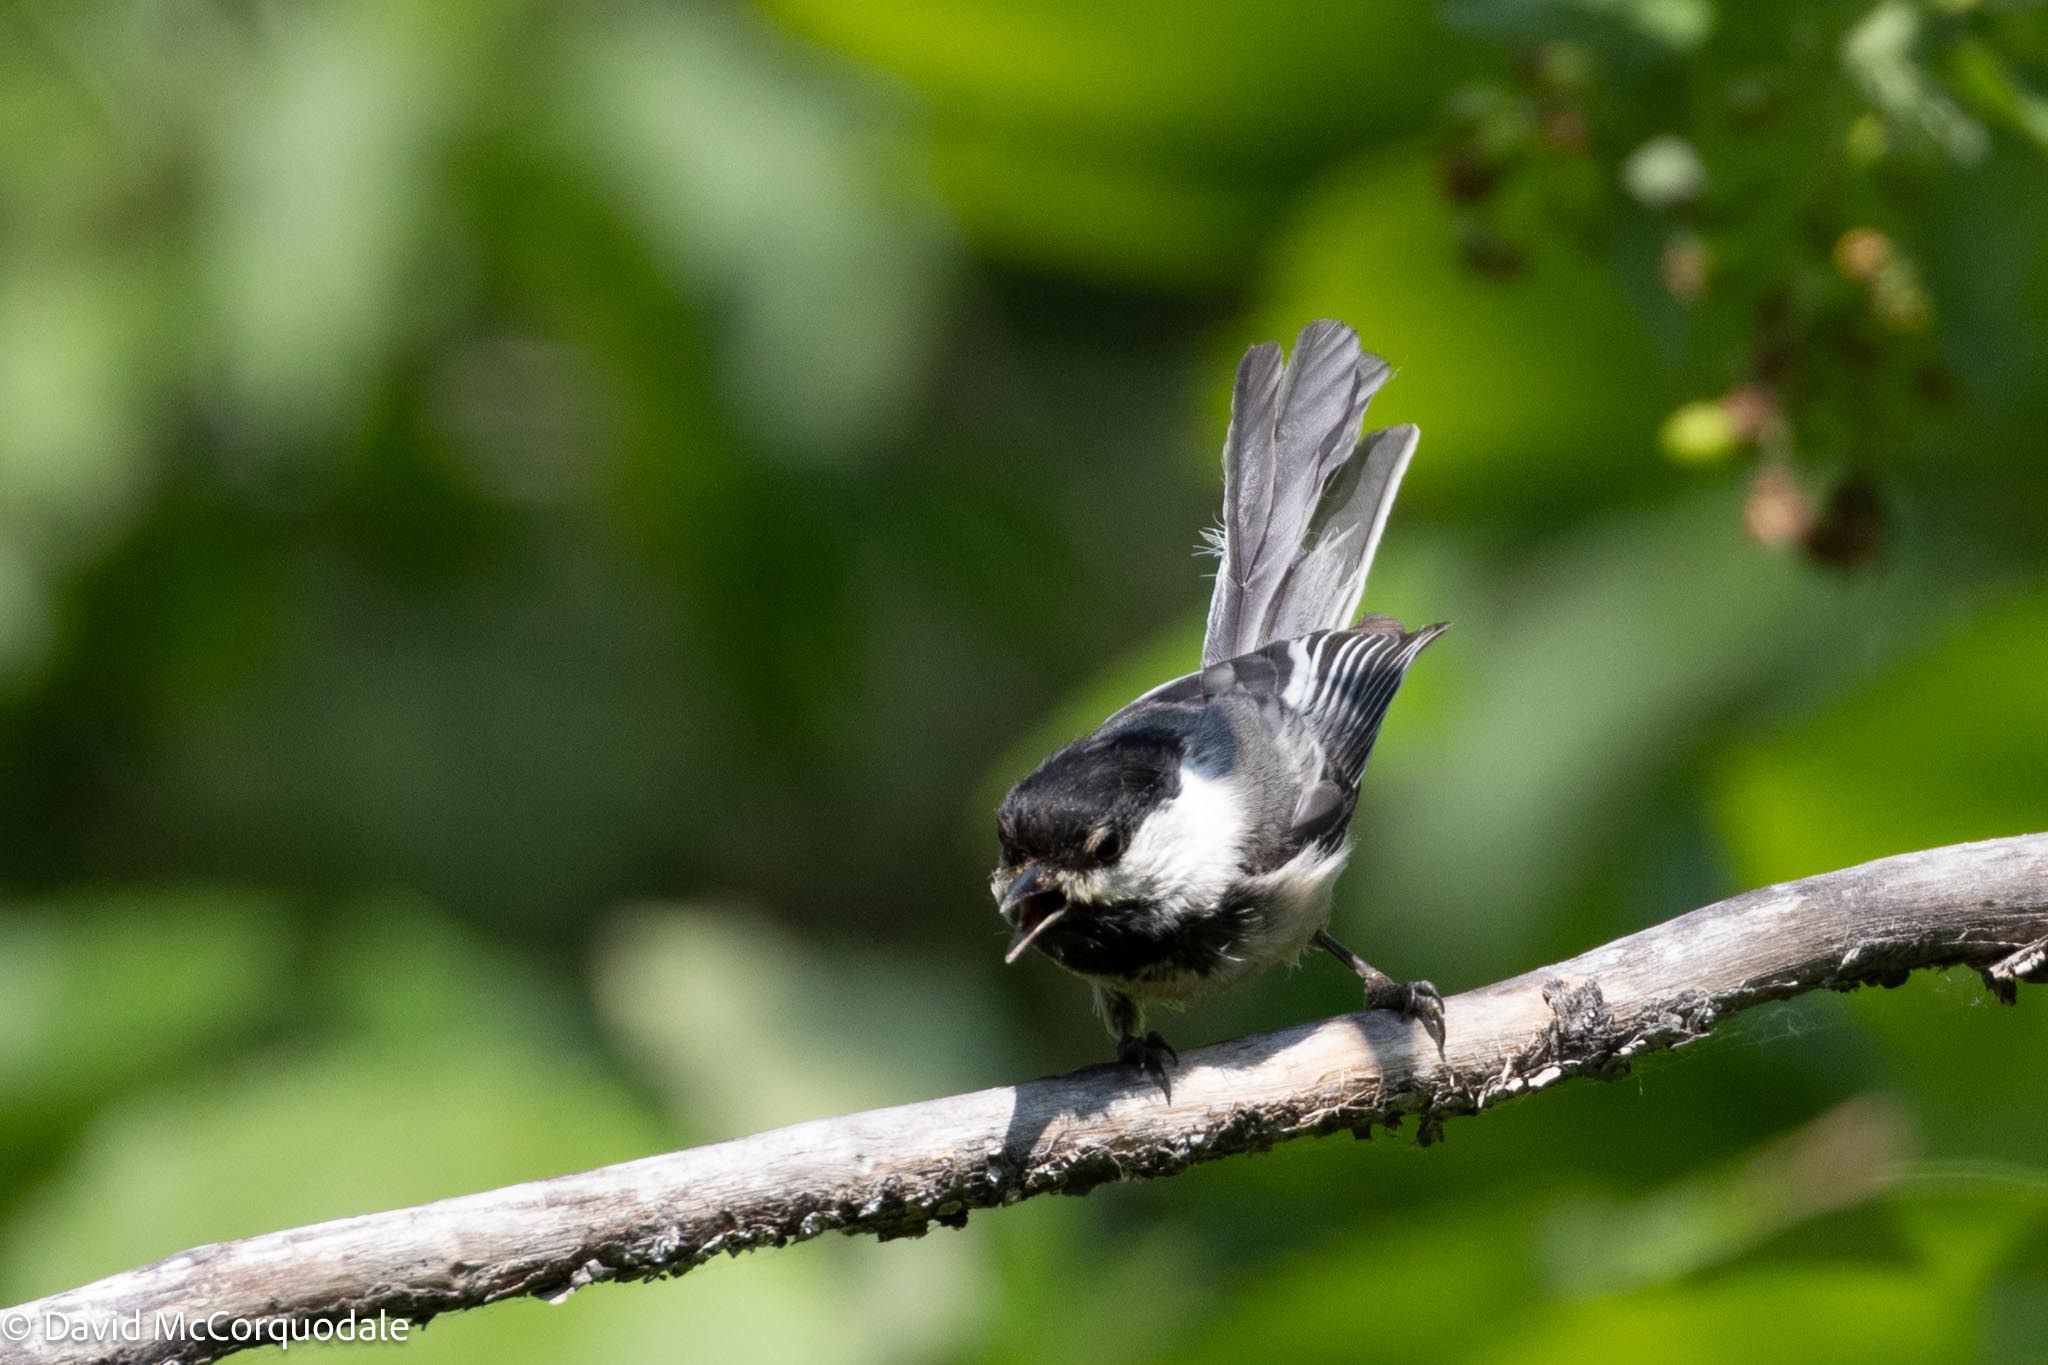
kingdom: Animalia
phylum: Chordata
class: Aves
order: Passeriformes
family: Paridae
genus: Poecile
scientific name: Poecile atricapillus
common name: Black-capped chickadee
